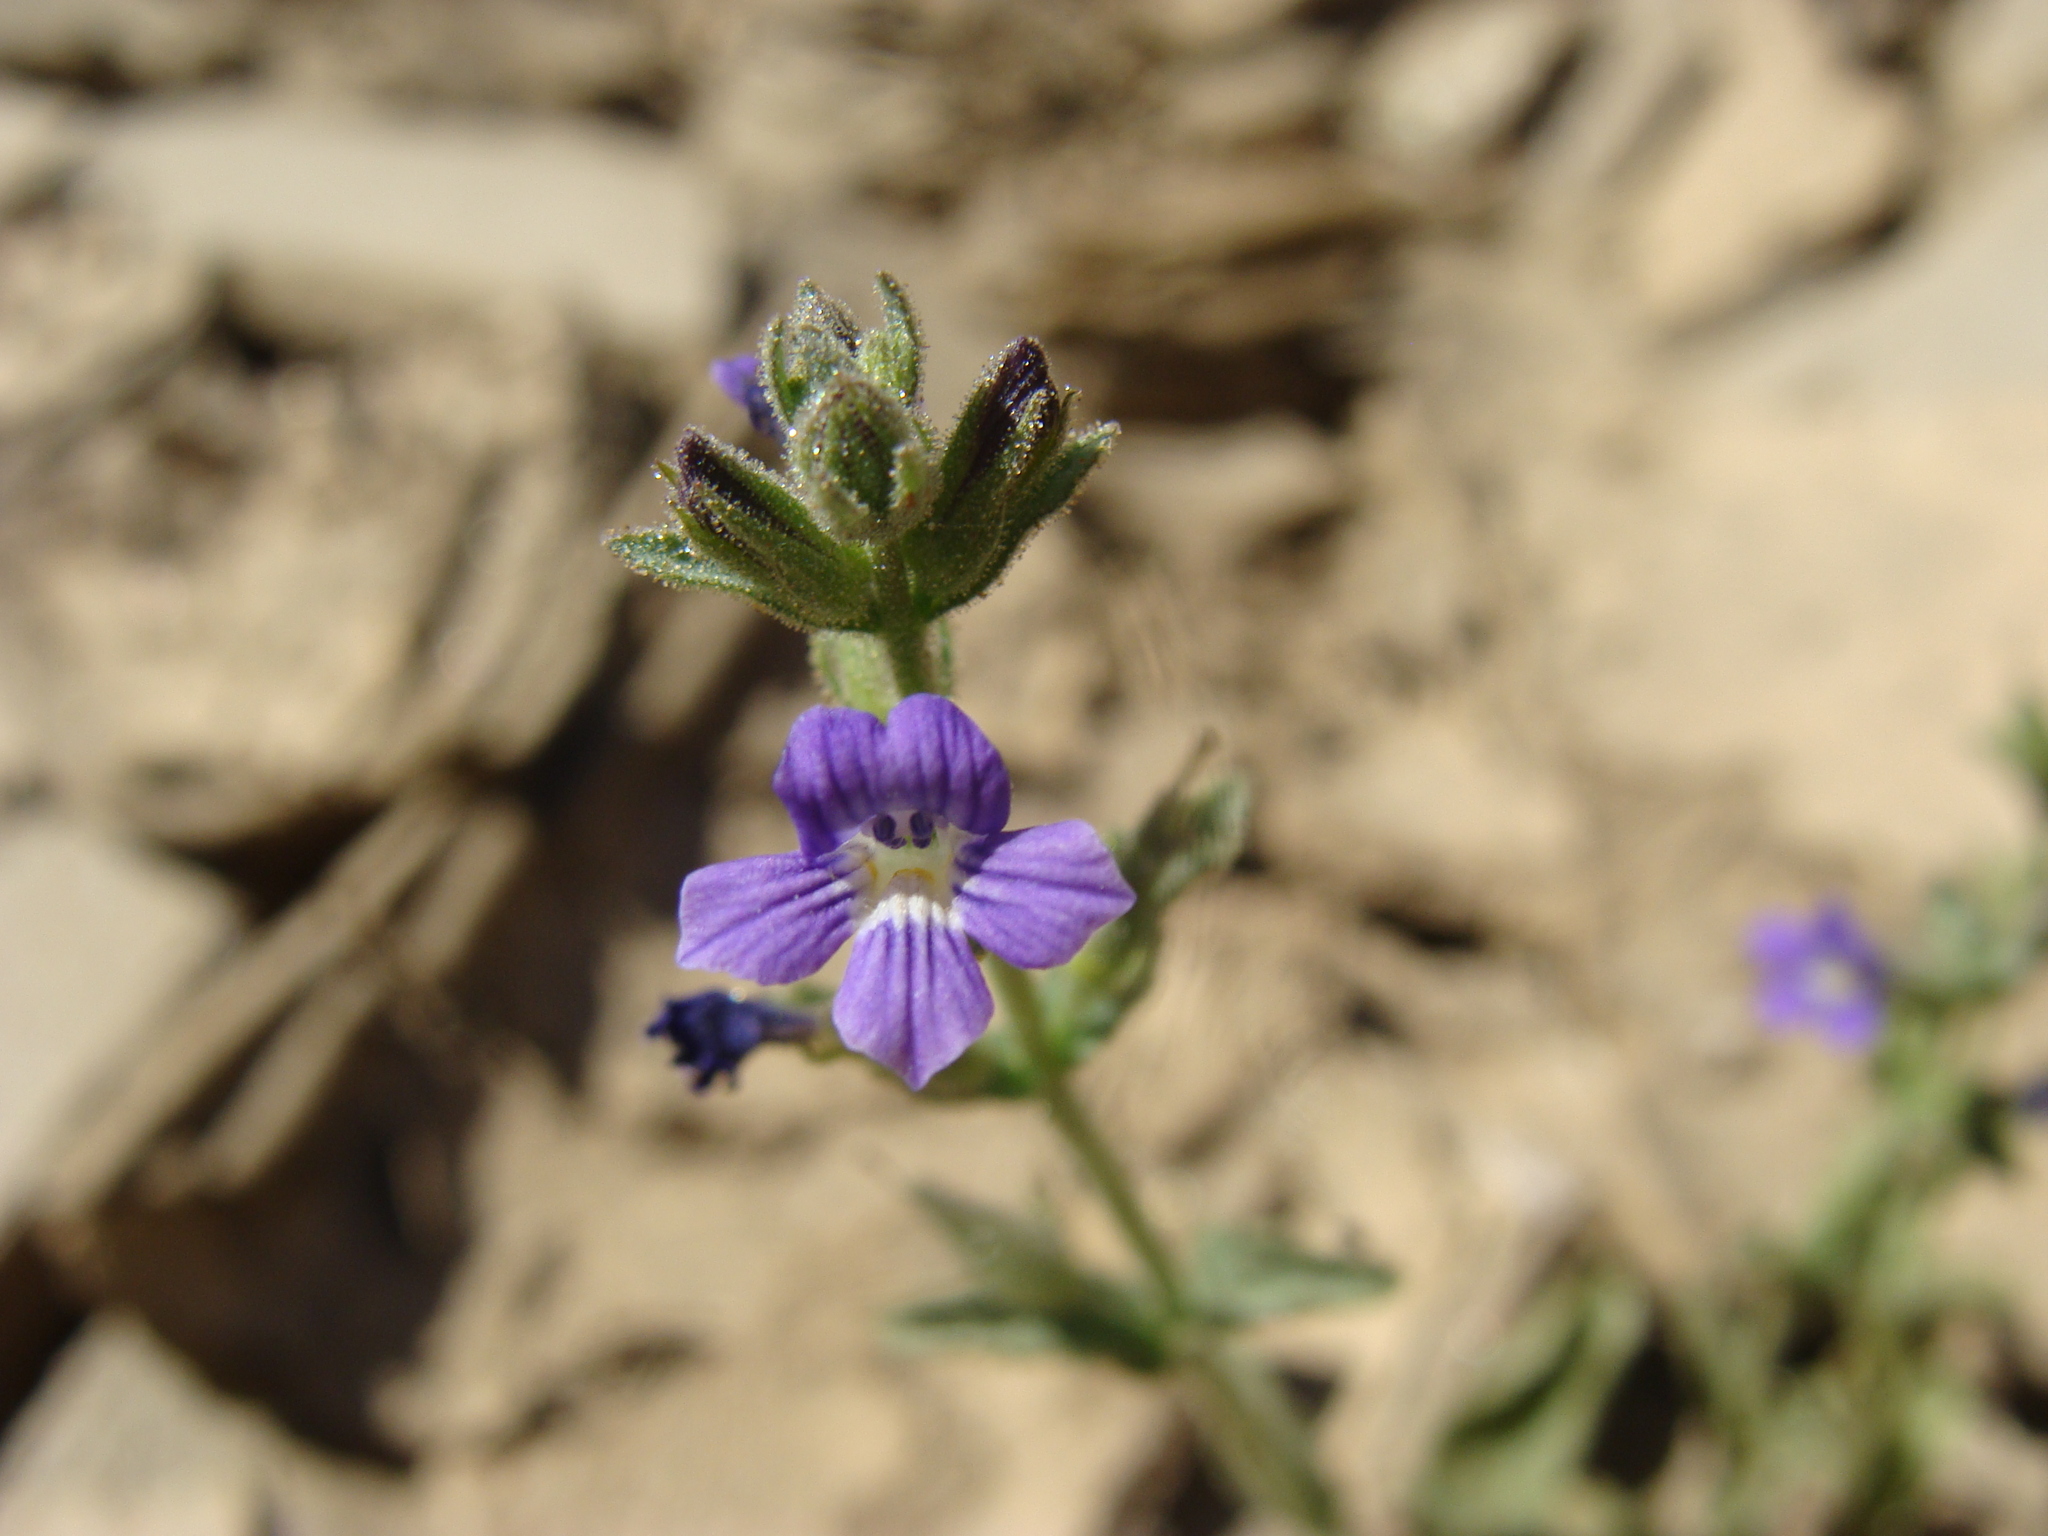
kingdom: Plantae
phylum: Tracheophyta
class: Magnoliopsida
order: Lamiales
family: Plantaginaceae
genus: Stemodia
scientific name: Stemodia durantifolia
